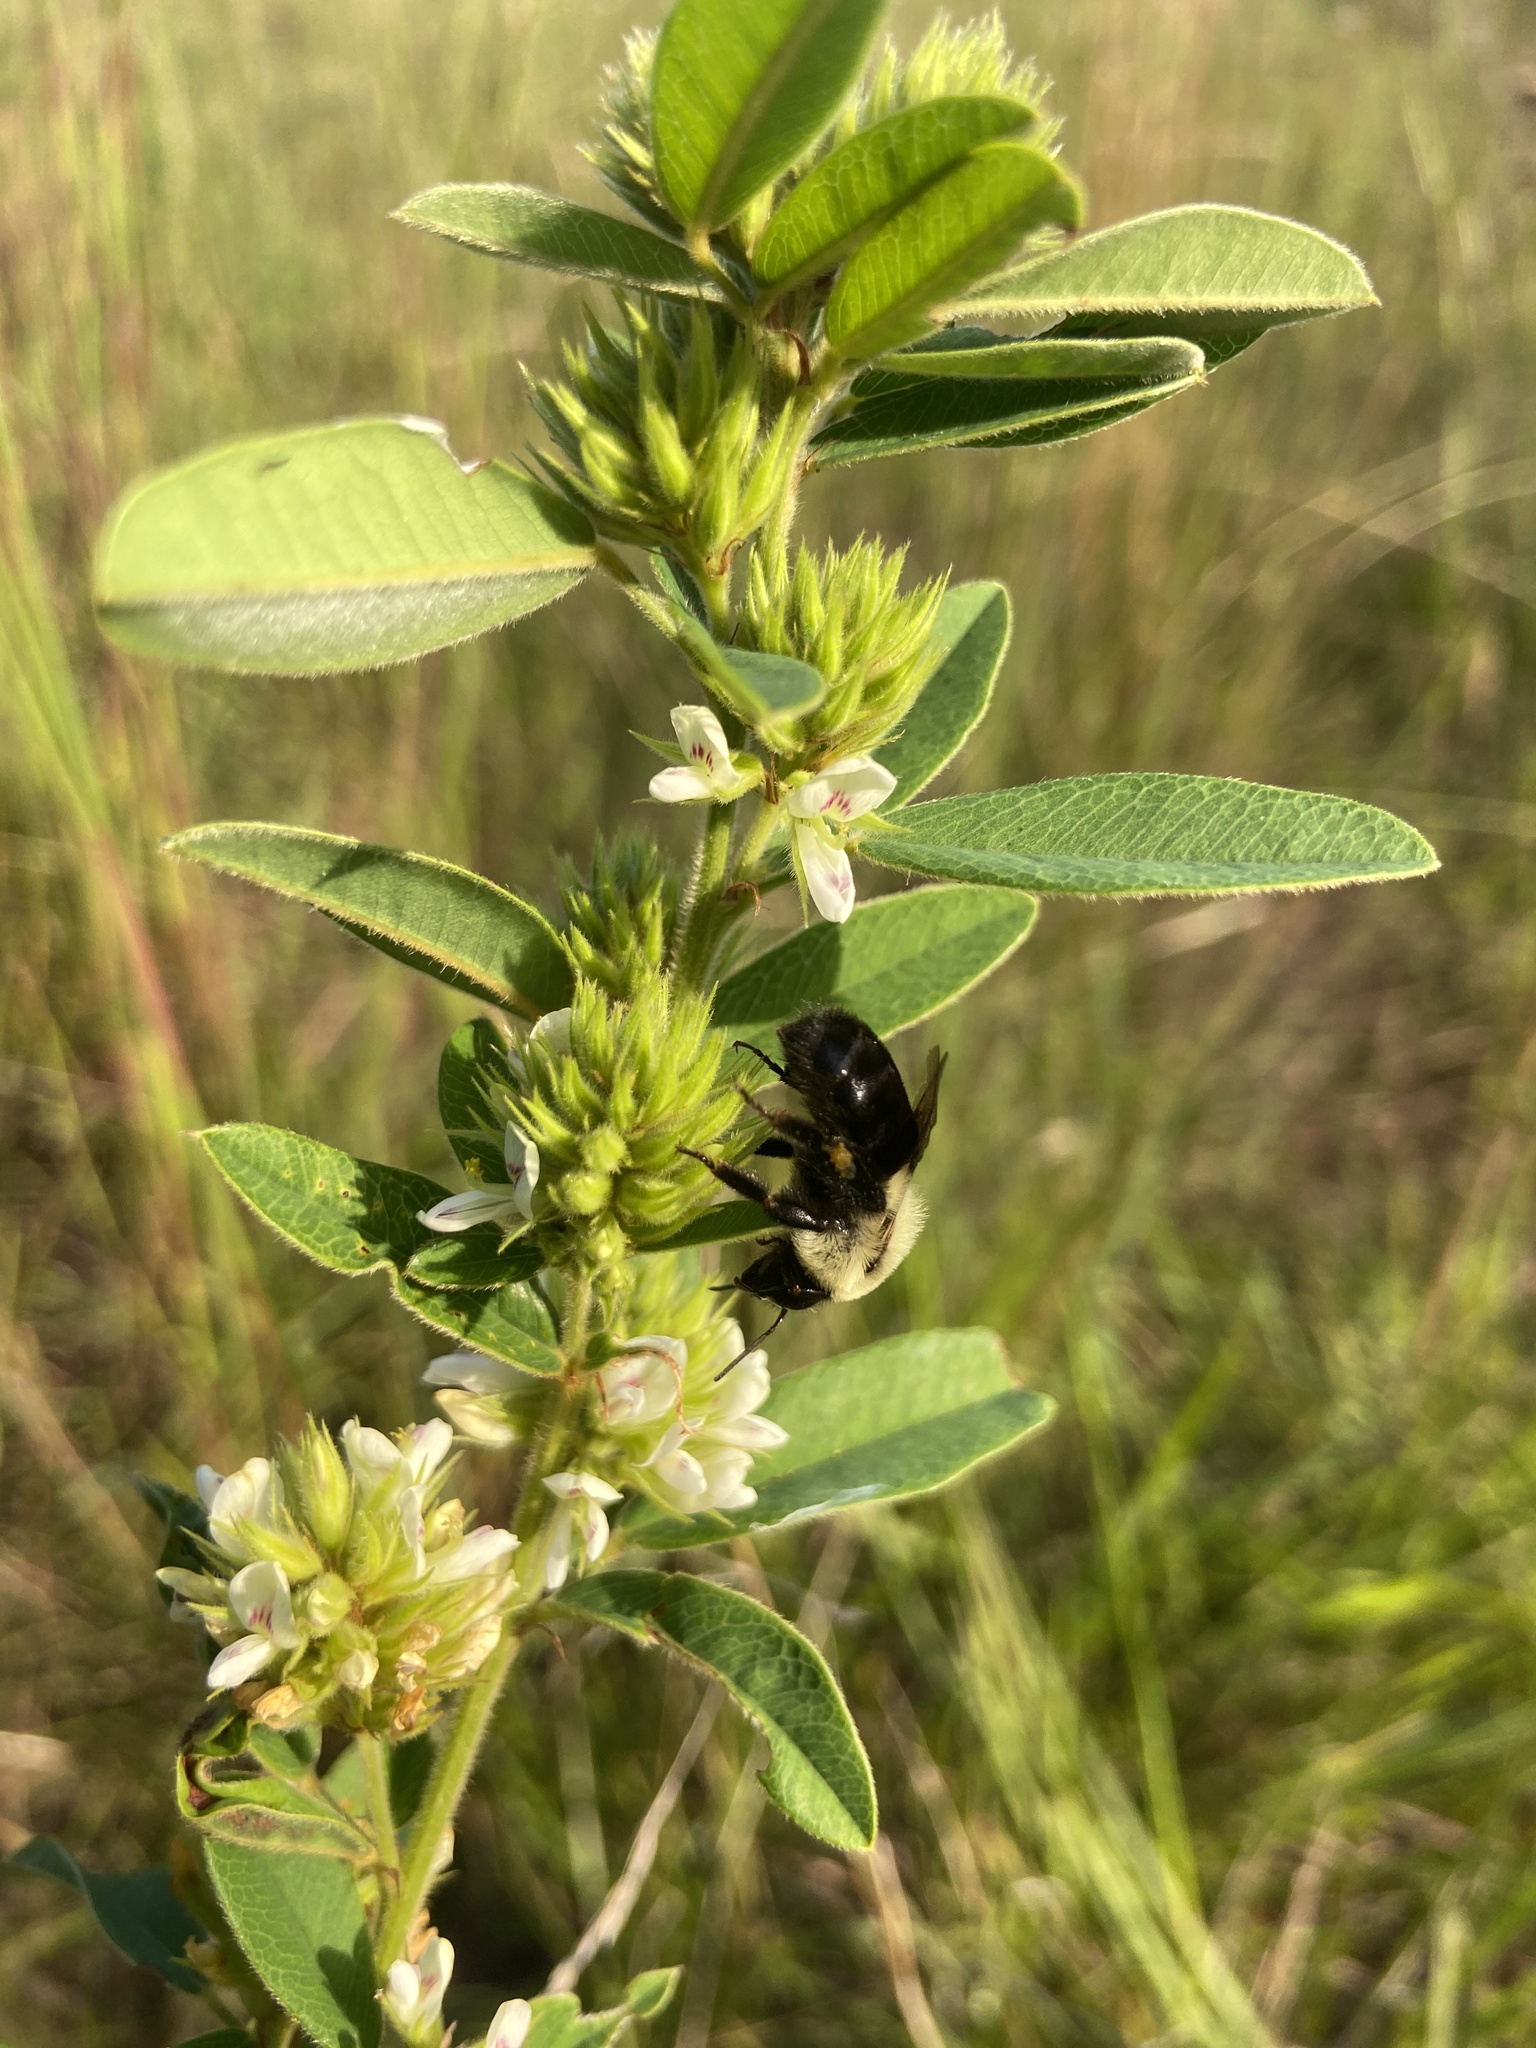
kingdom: Animalia
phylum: Arthropoda
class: Insecta
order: Hymenoptera
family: Apidae
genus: Bombus
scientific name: Bombus impatiens
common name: Common eastern bumble bee
